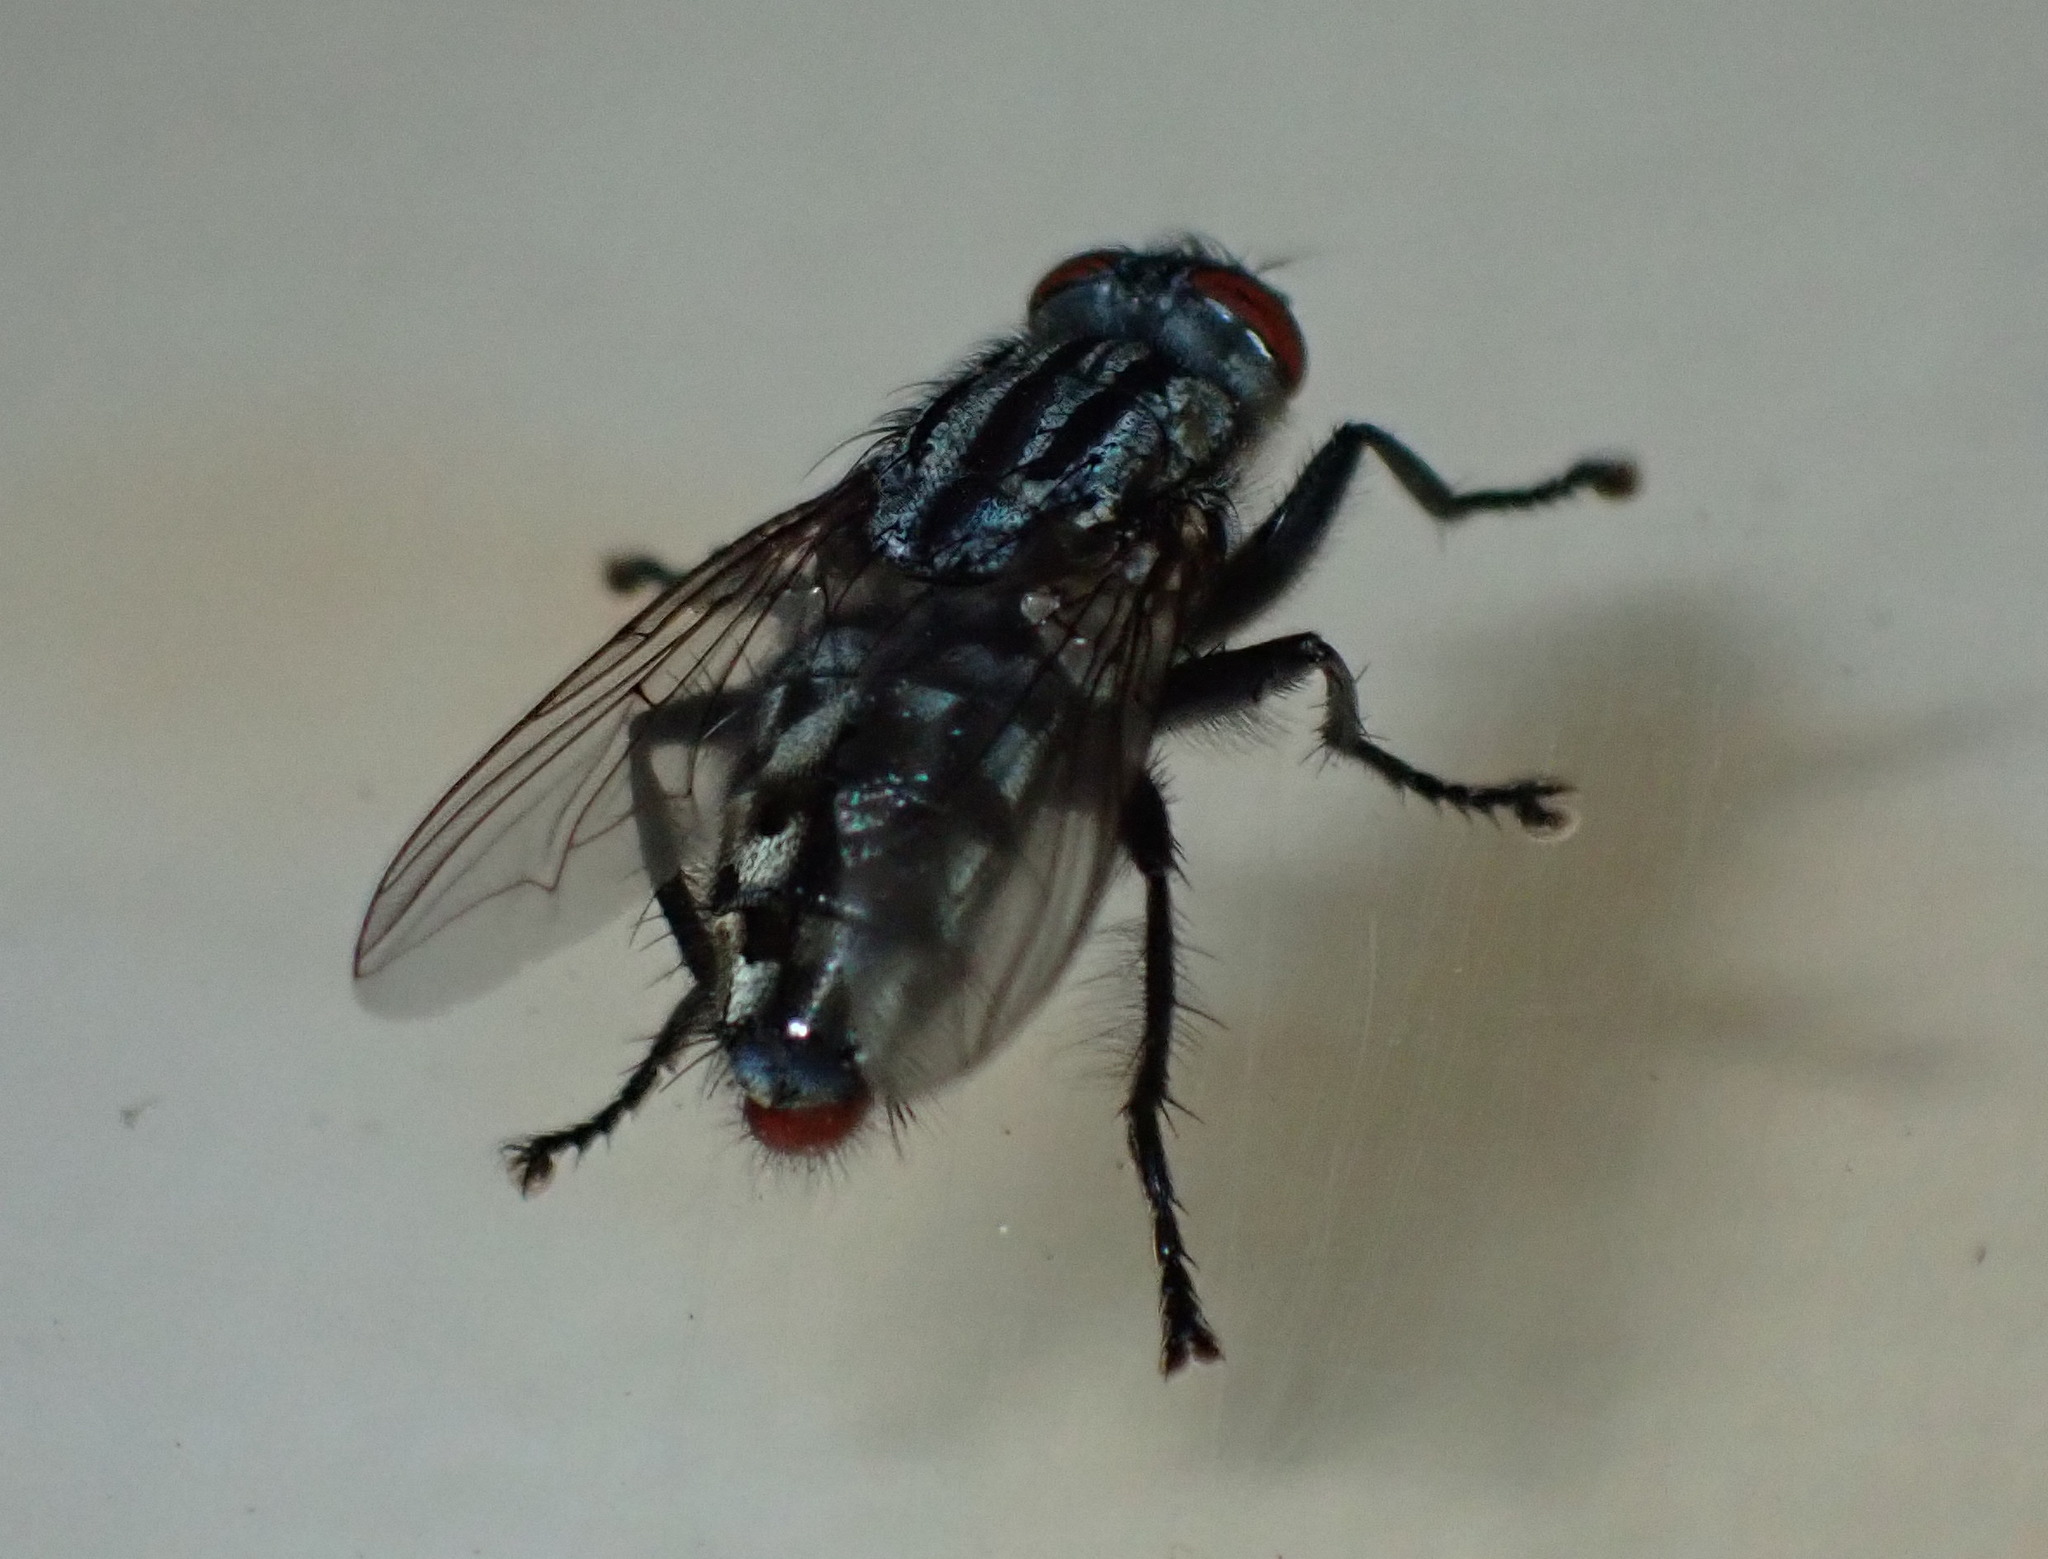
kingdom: Animalia
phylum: Arthropoda
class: Insecta
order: Diptera
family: Sarcophagidae
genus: Sarcophaga
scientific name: Sarcophaga crassipalpis
